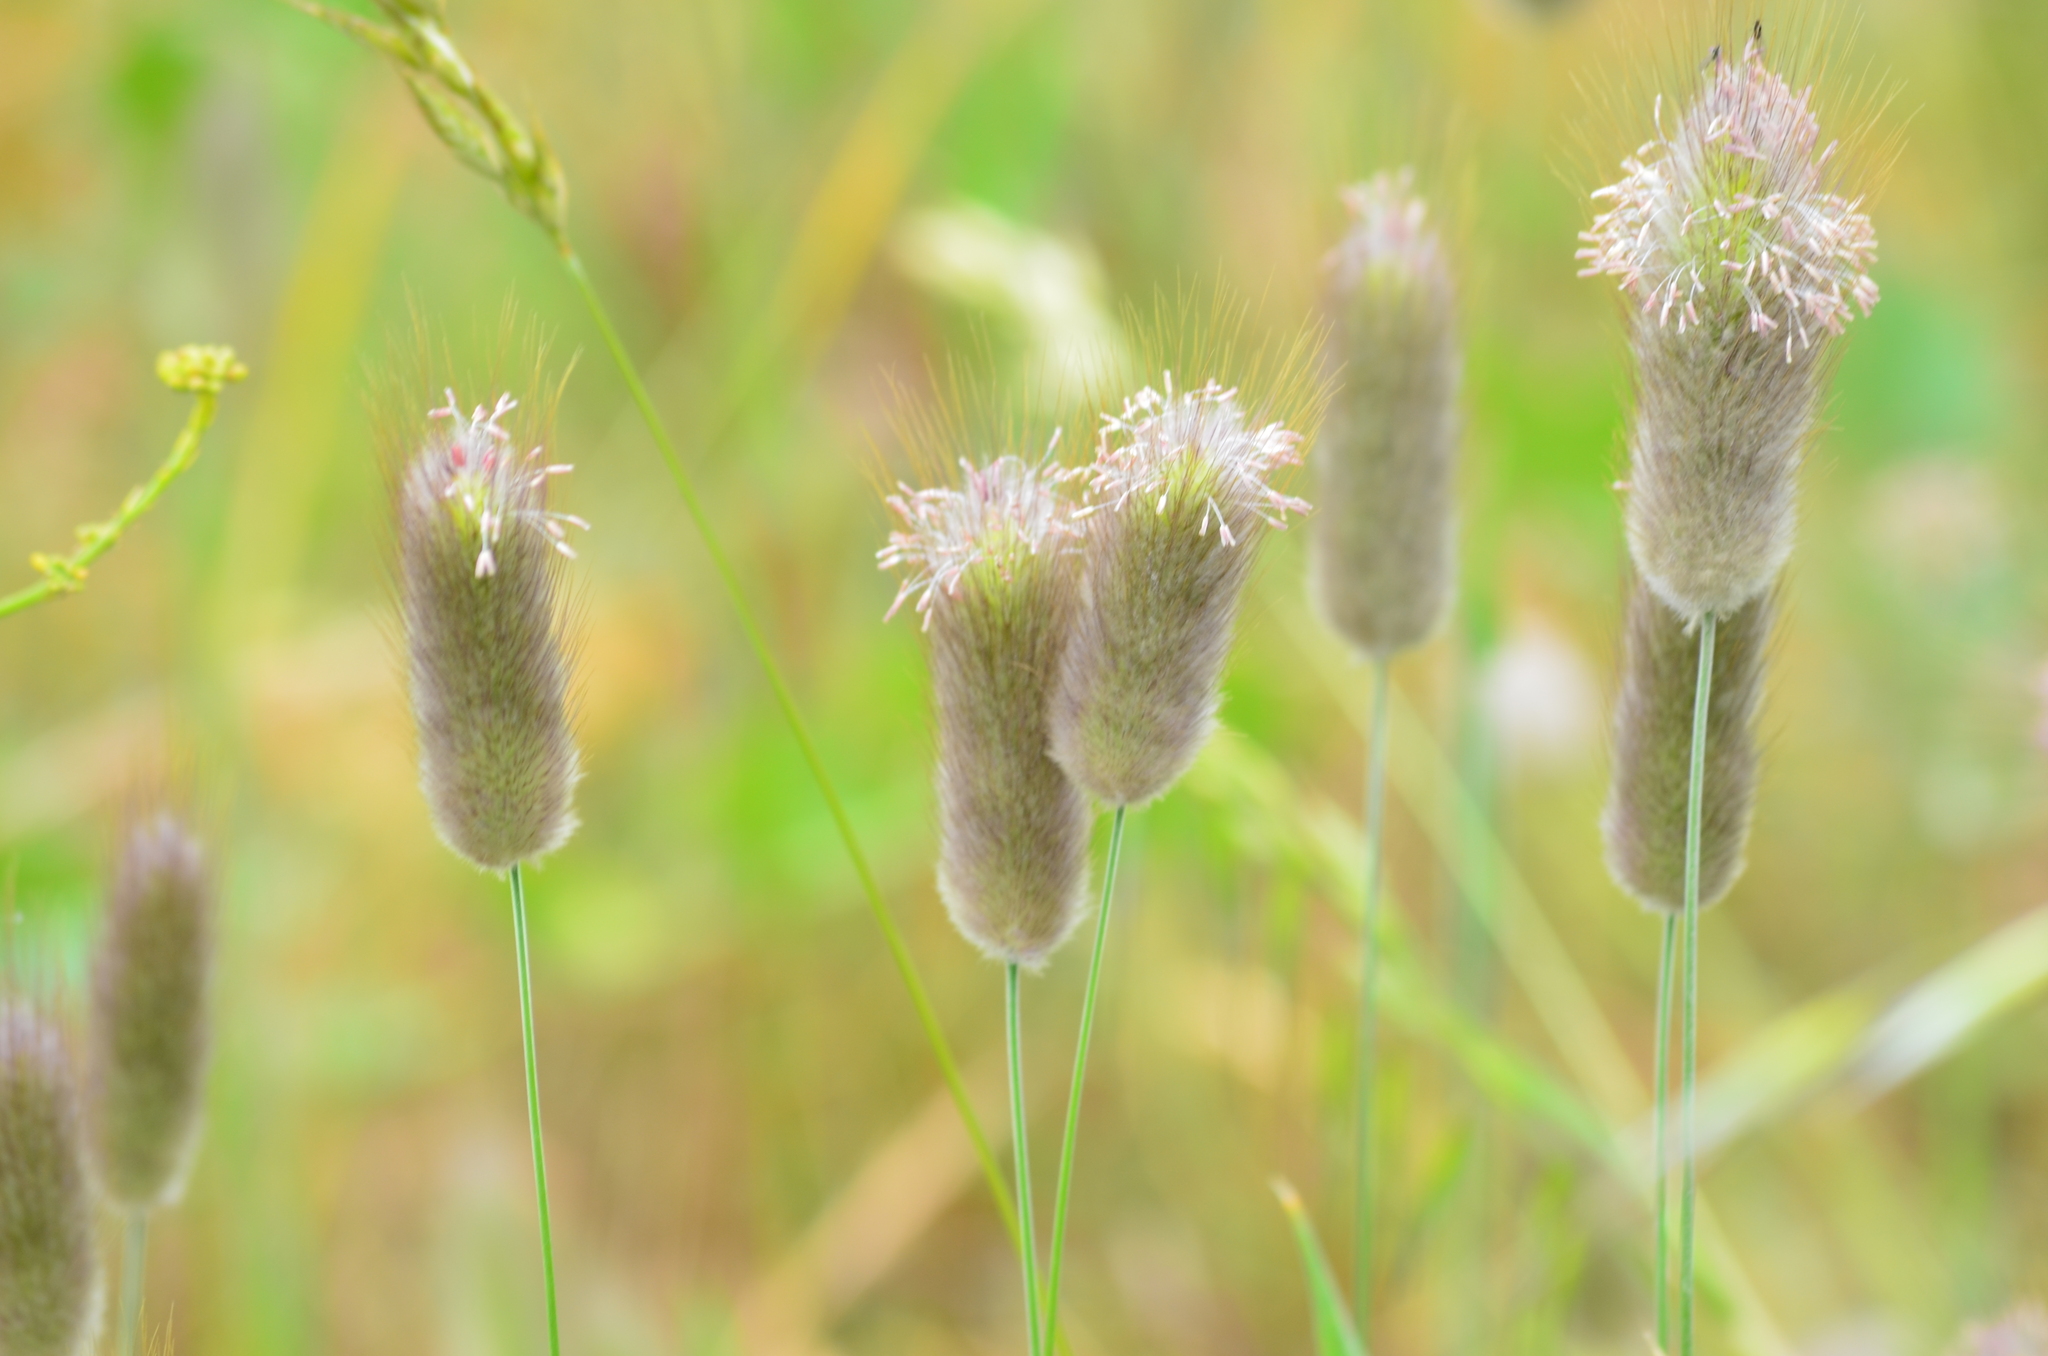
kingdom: Plantae
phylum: Tracheophyta
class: Liliopsida
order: Poales
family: Poaceae
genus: Lagurus
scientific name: Lagurus ovatus
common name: Hare's-tail
